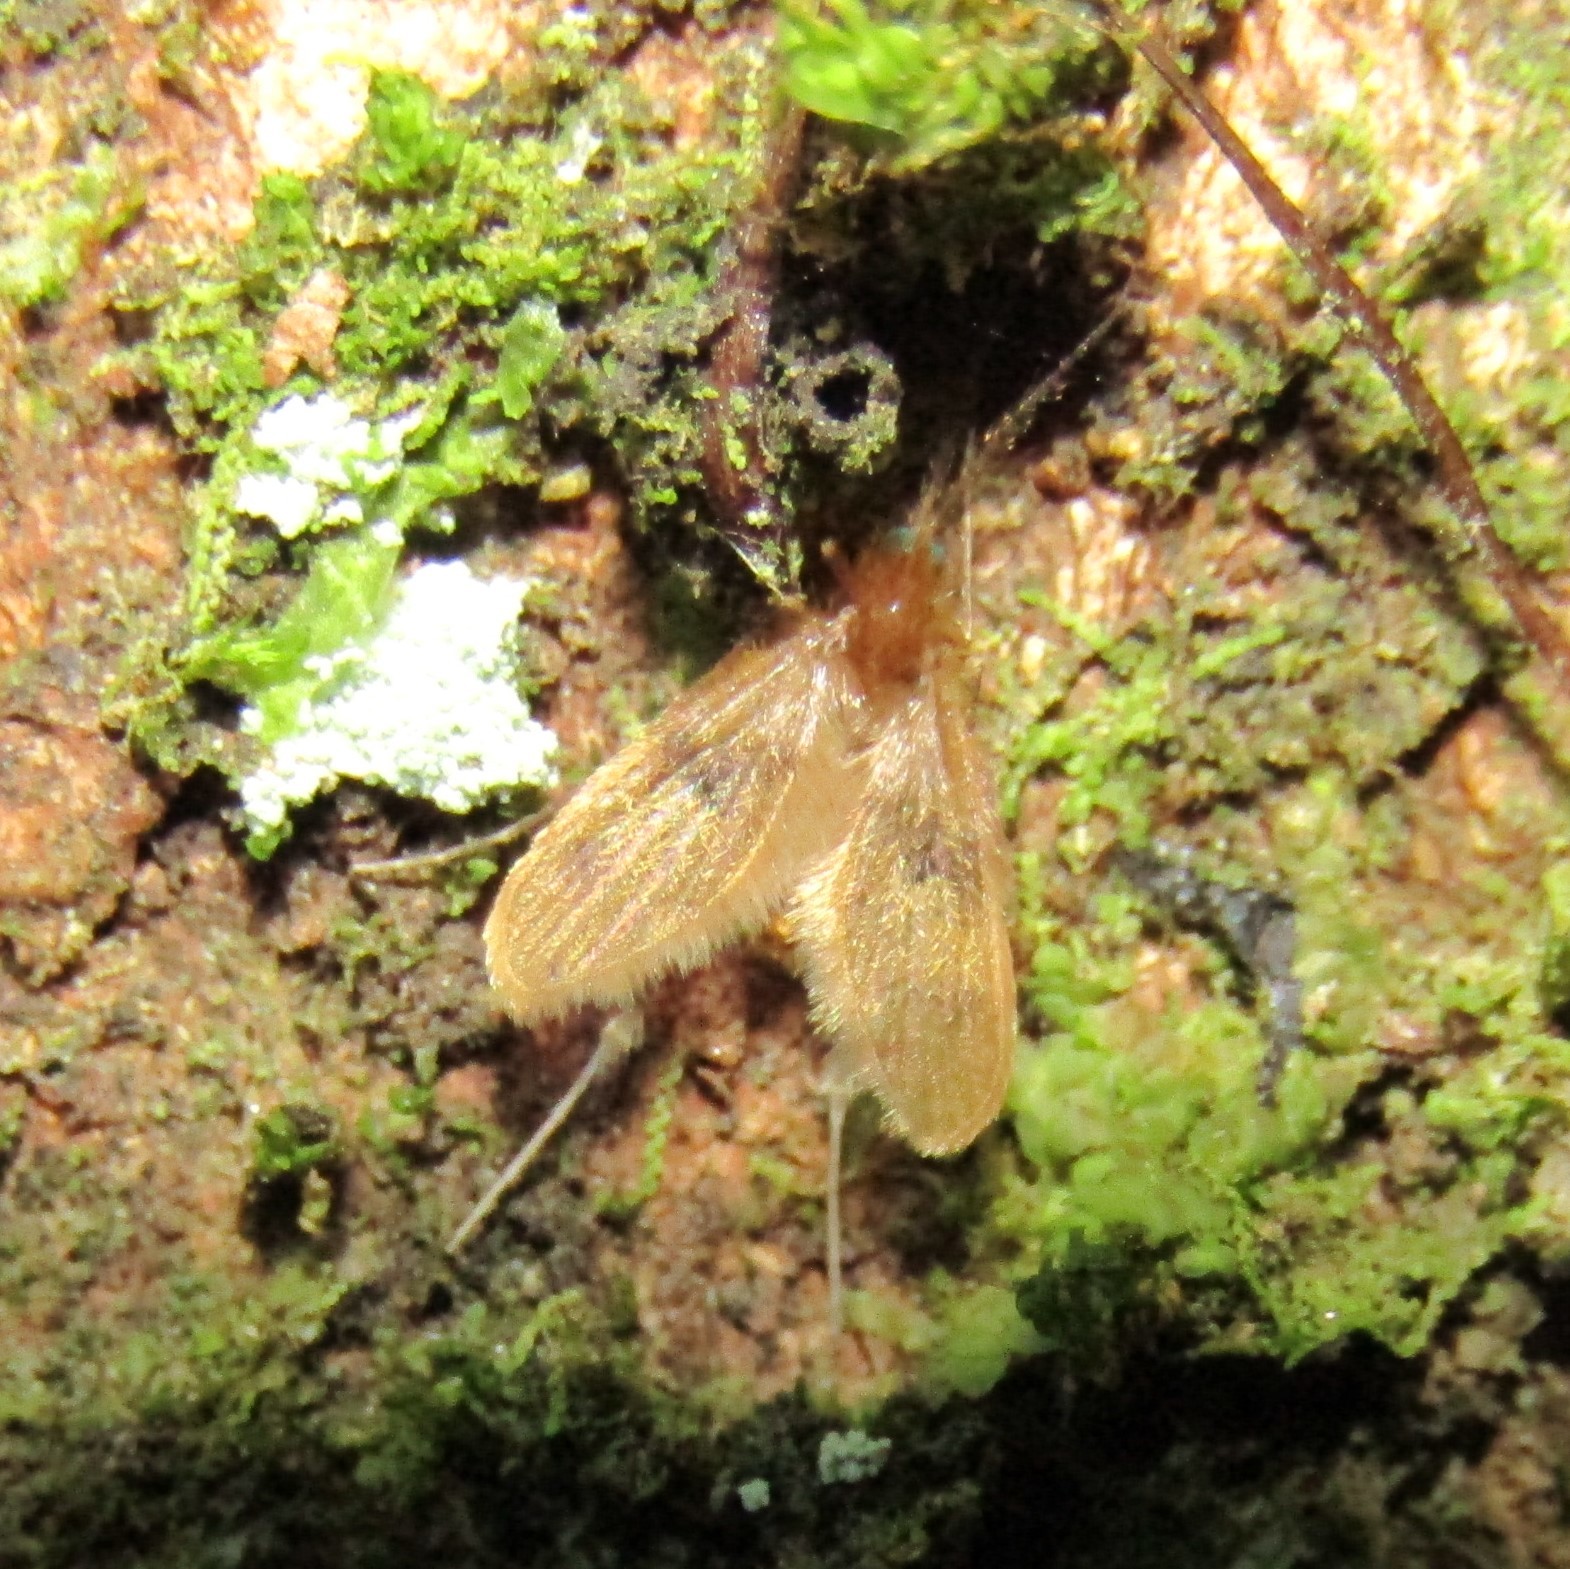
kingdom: Animalia
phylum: Arthropoda
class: Insecta
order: Diptera
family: Psychodidae
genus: Notofairchildia
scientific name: Notofairchildia zelandiae
